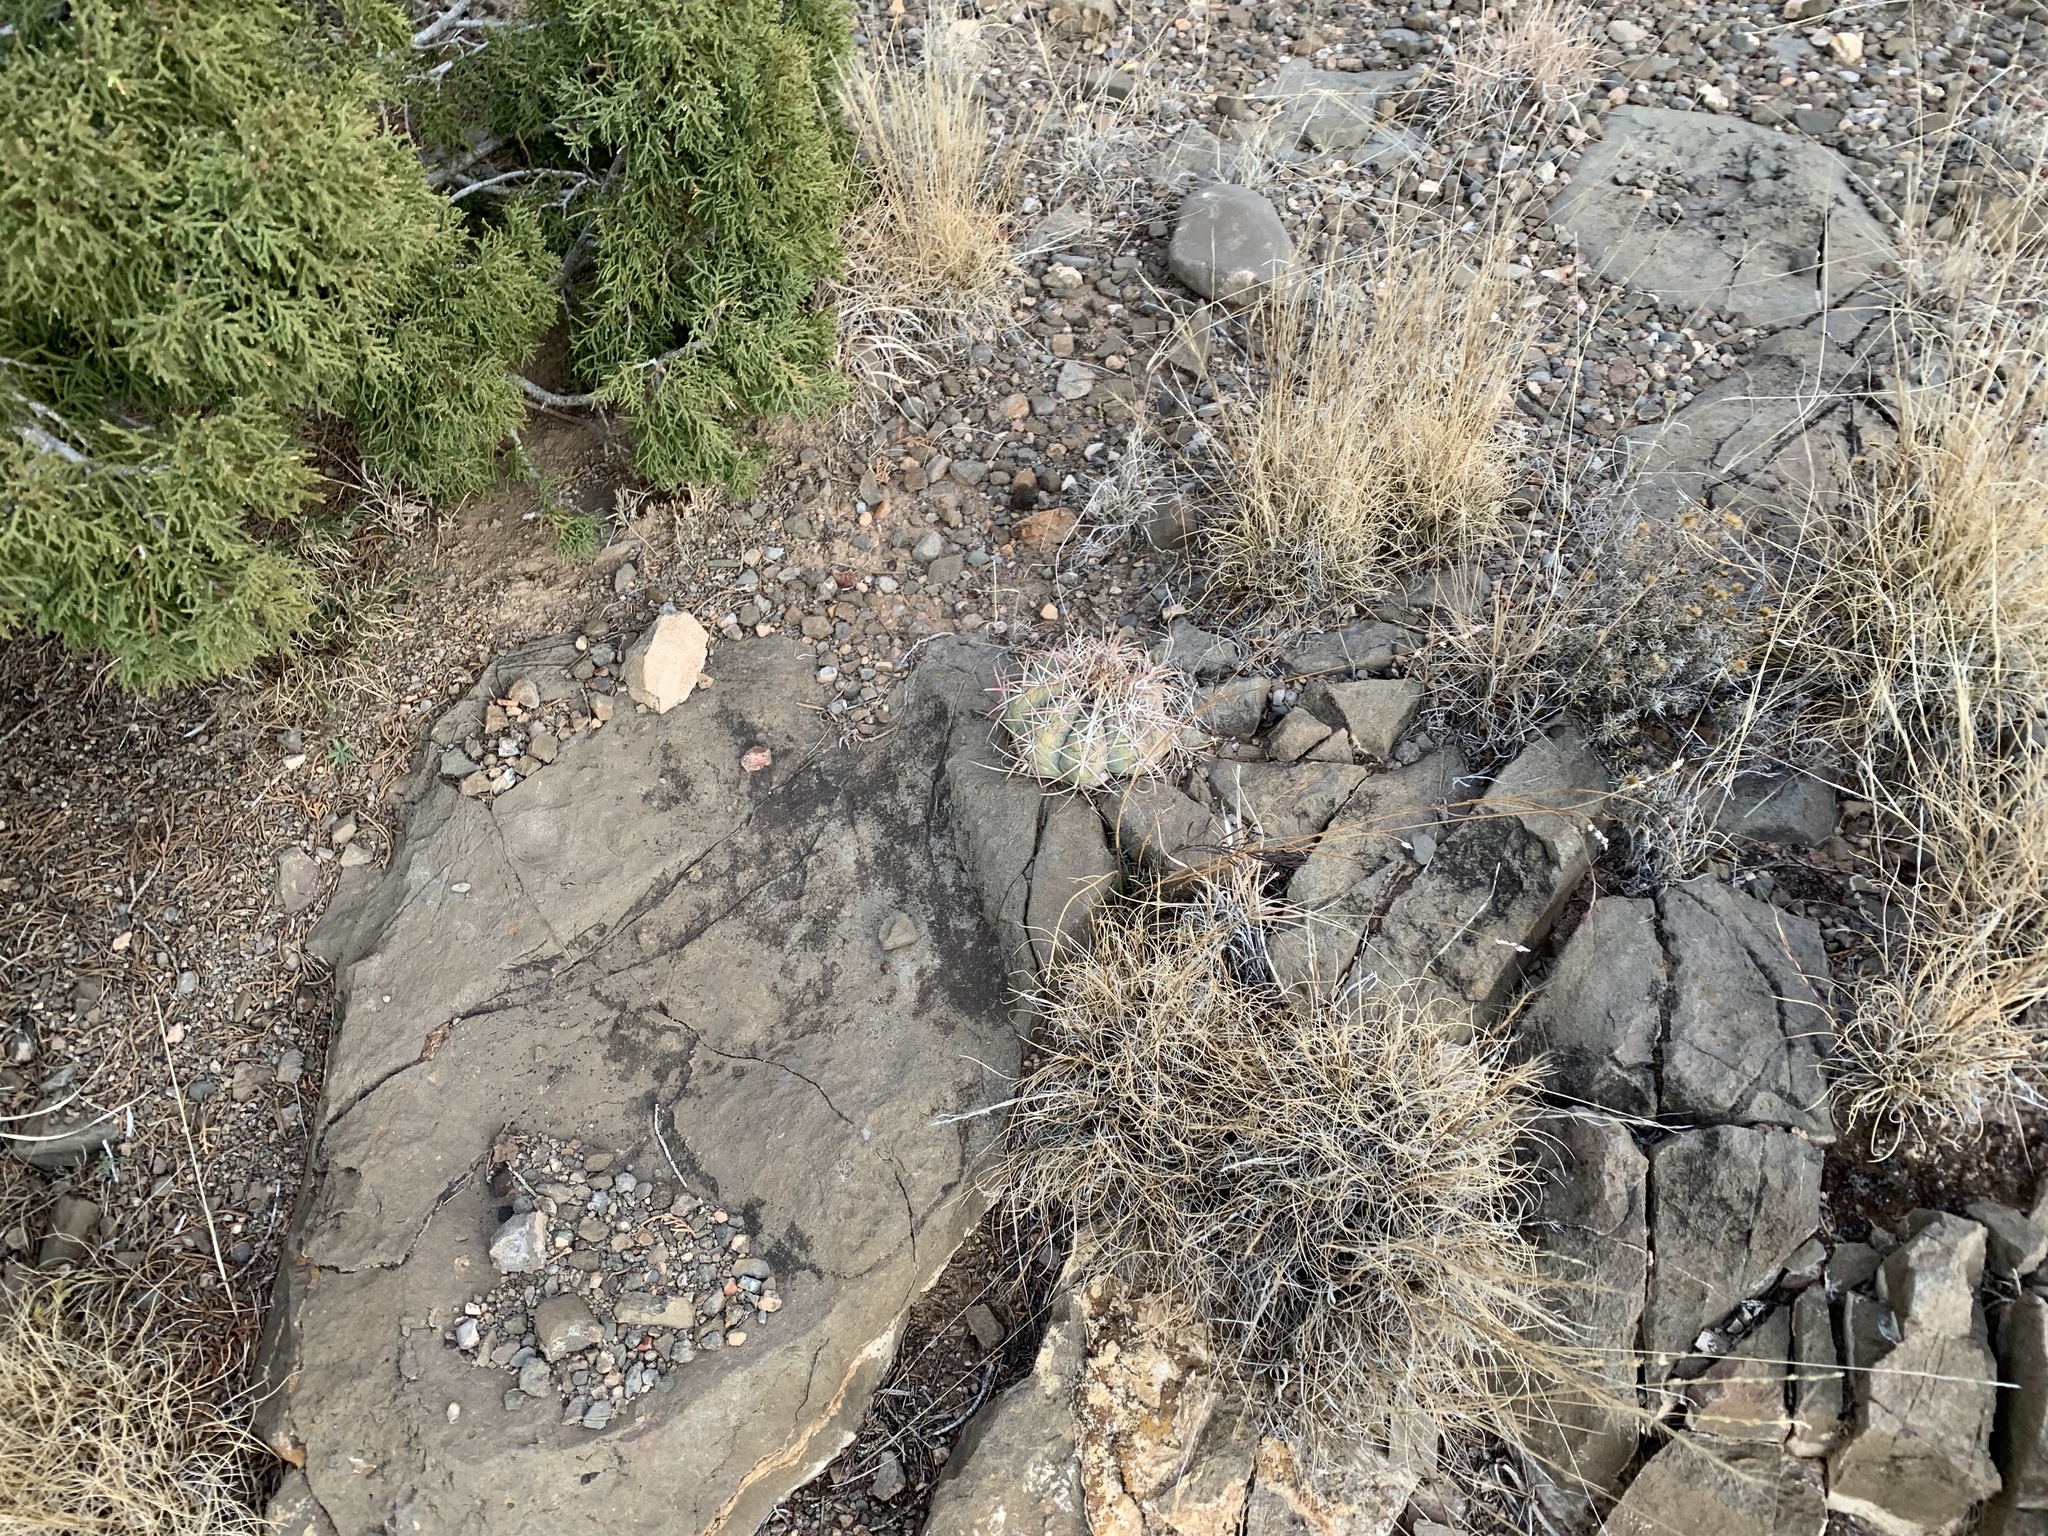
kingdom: Plantae
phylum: Tracheophyta
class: Magnoliopsida
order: Caryophyllales
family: Cactaceae
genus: Echinocactus
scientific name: Echinocactus horizonthalonius
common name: Devilshead
